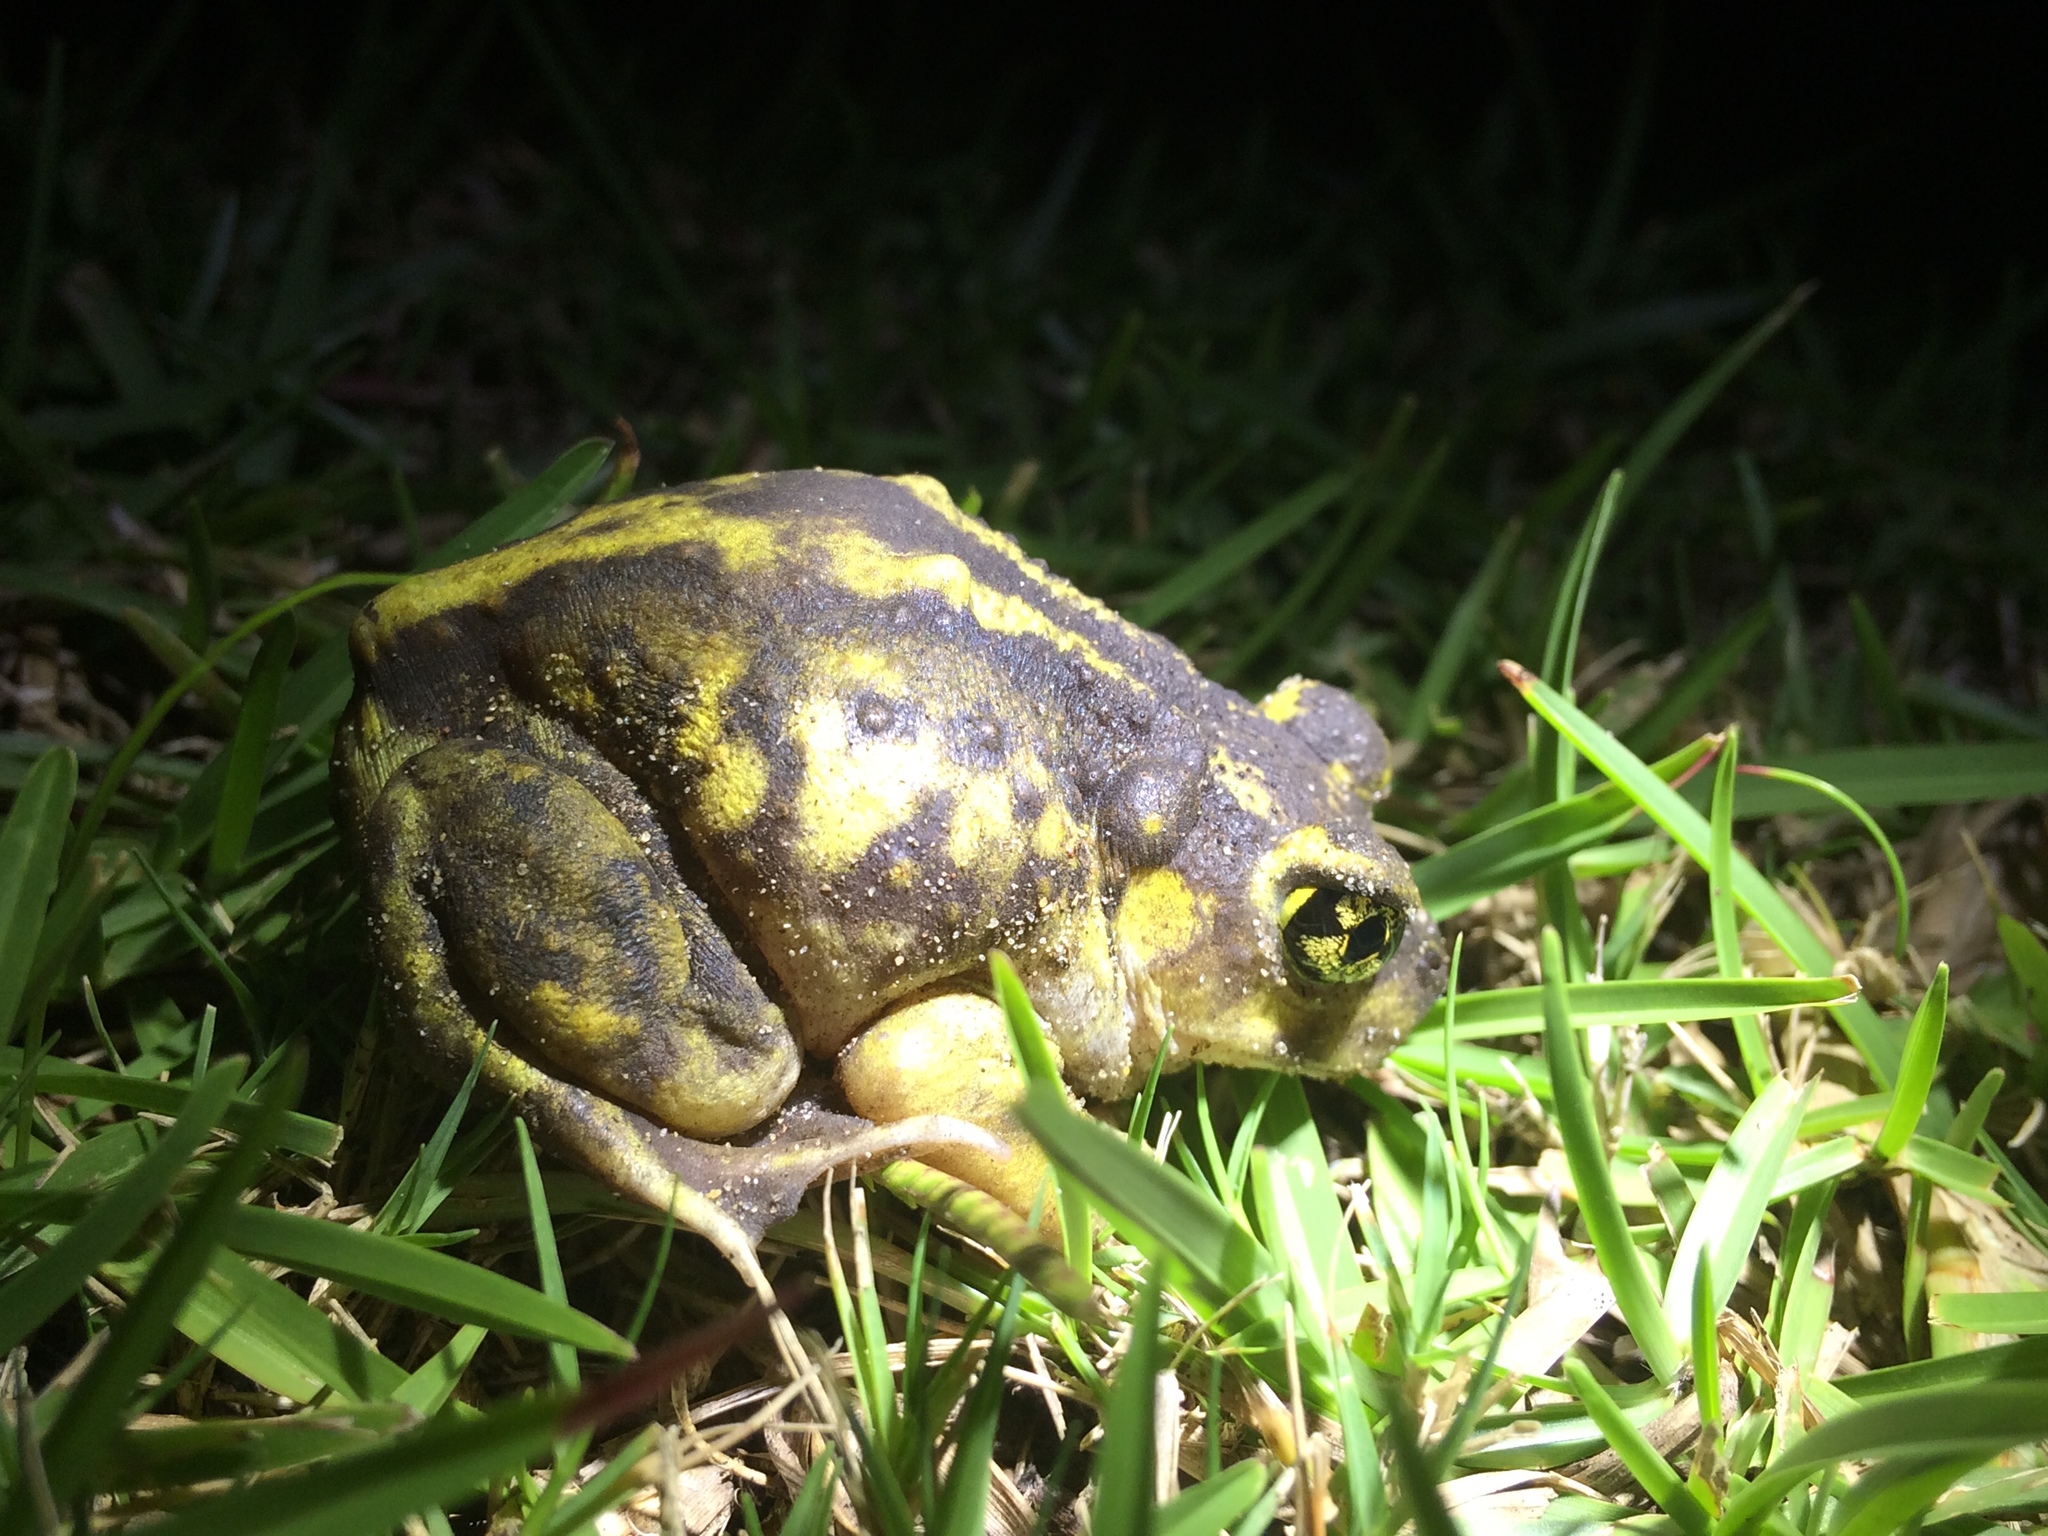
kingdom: Animalia
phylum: Chordata
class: Amphibia
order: Anura
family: Scaphiopodidae
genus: Scaphiopus
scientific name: Scaphiopus holbrookii
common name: Eastern spadefoot toad
